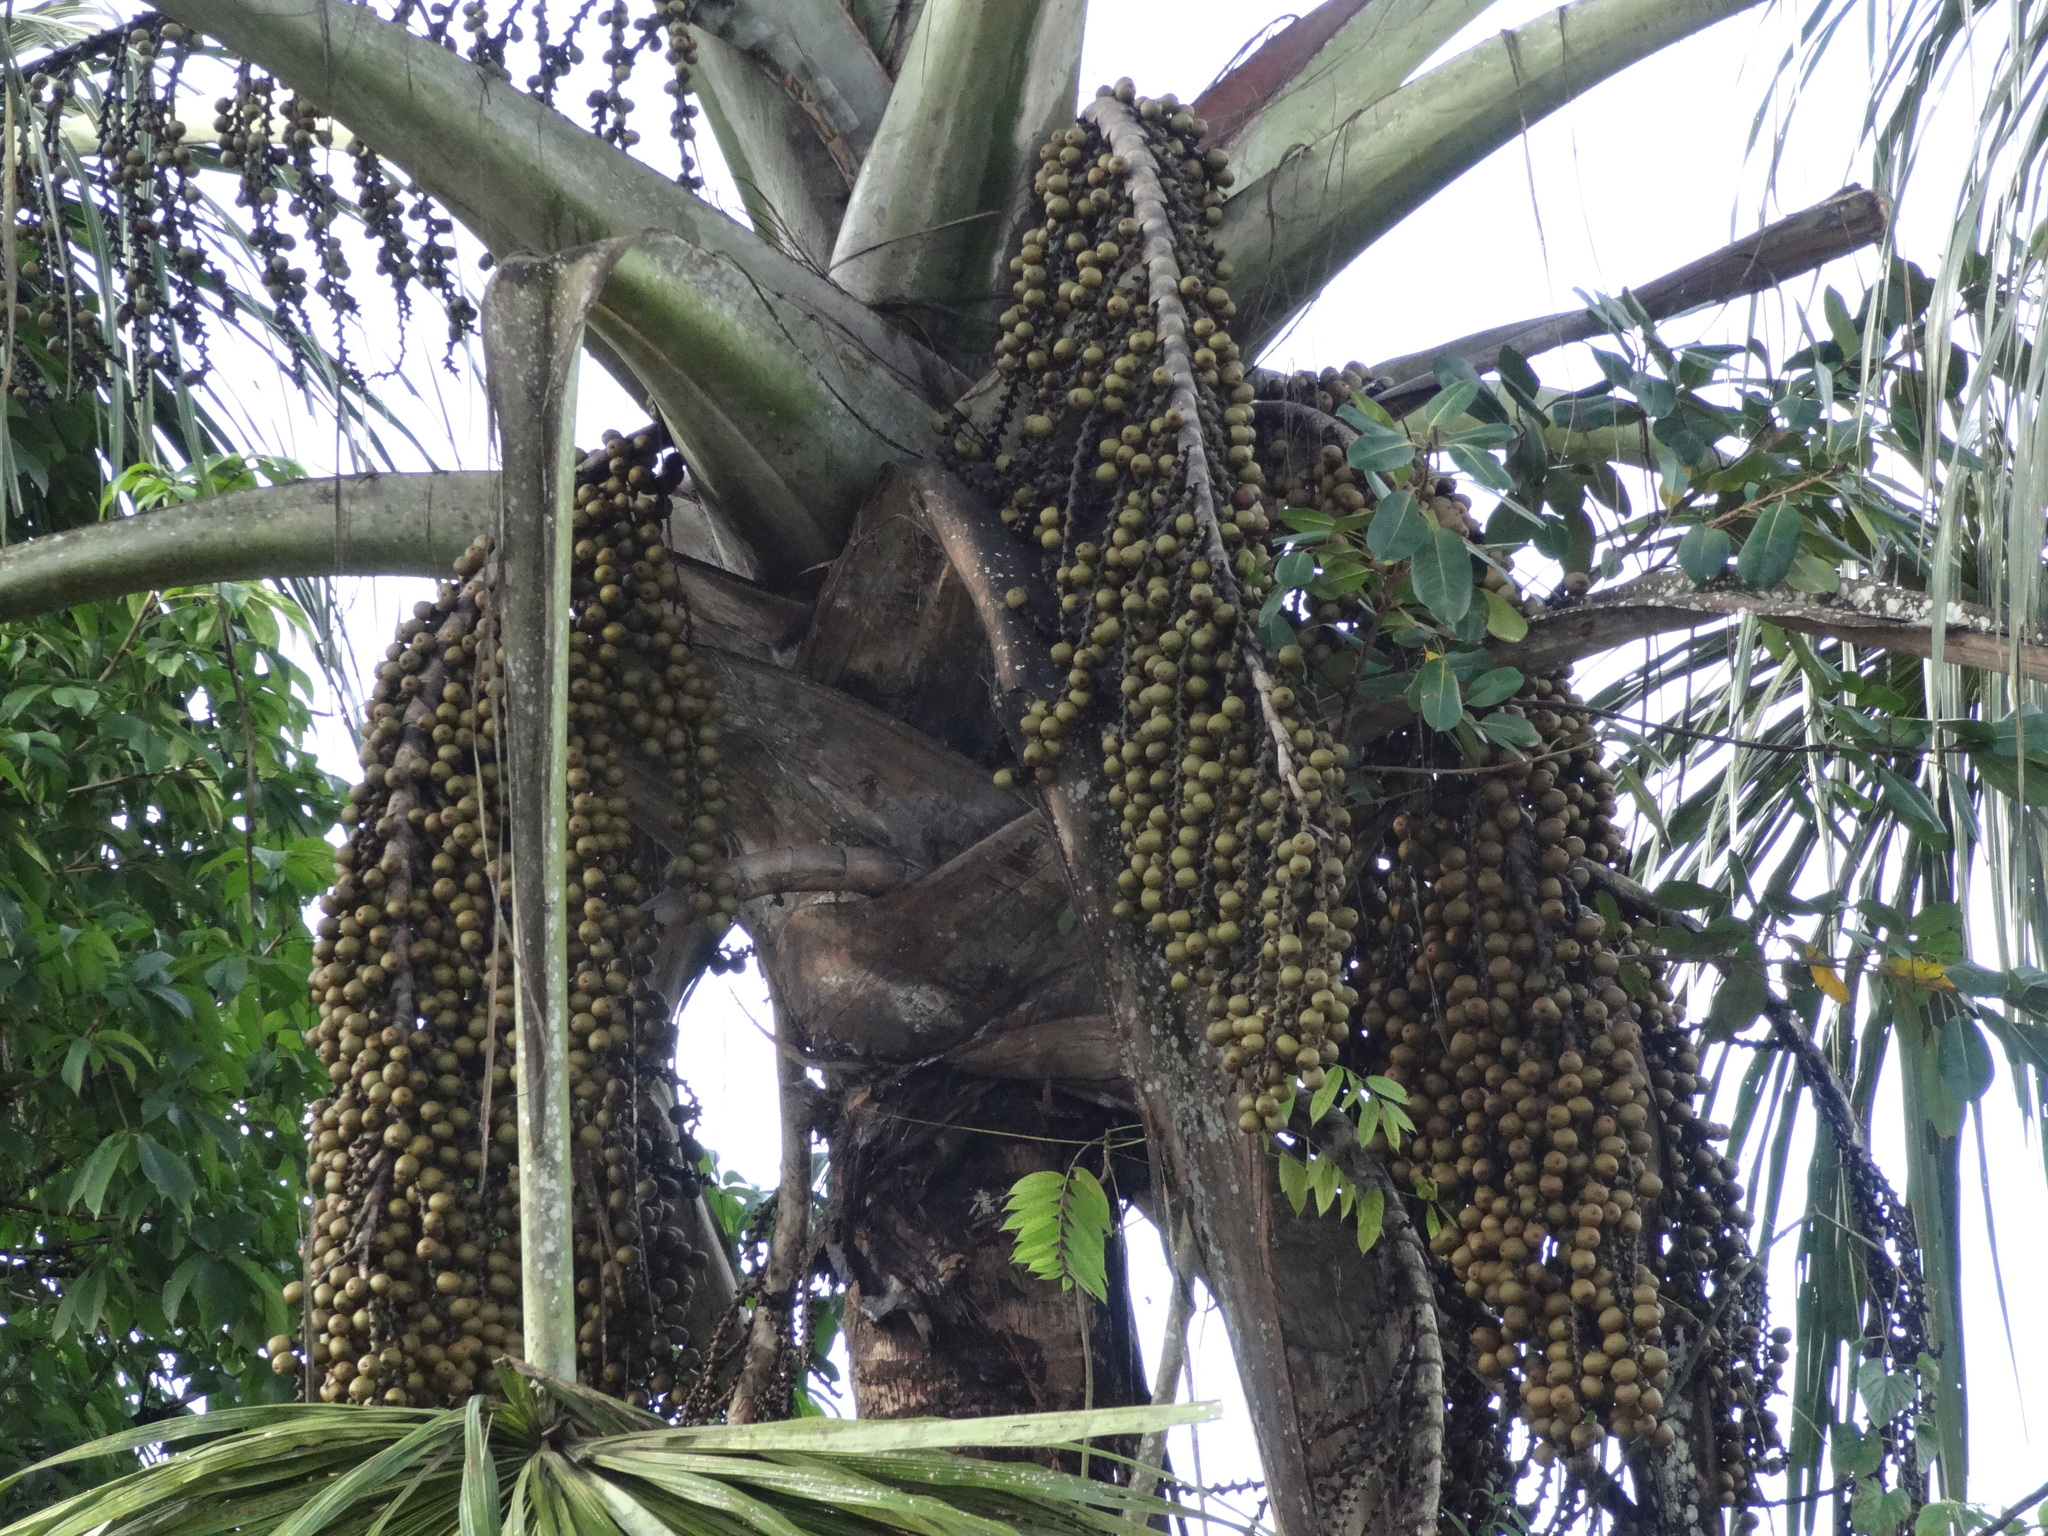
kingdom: Plantae
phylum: Tracheophyta
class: Liliopsida
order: Arecales
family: Arecaceae
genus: Mauritia
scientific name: Mauritia flexuosa
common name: Tree-of-life
